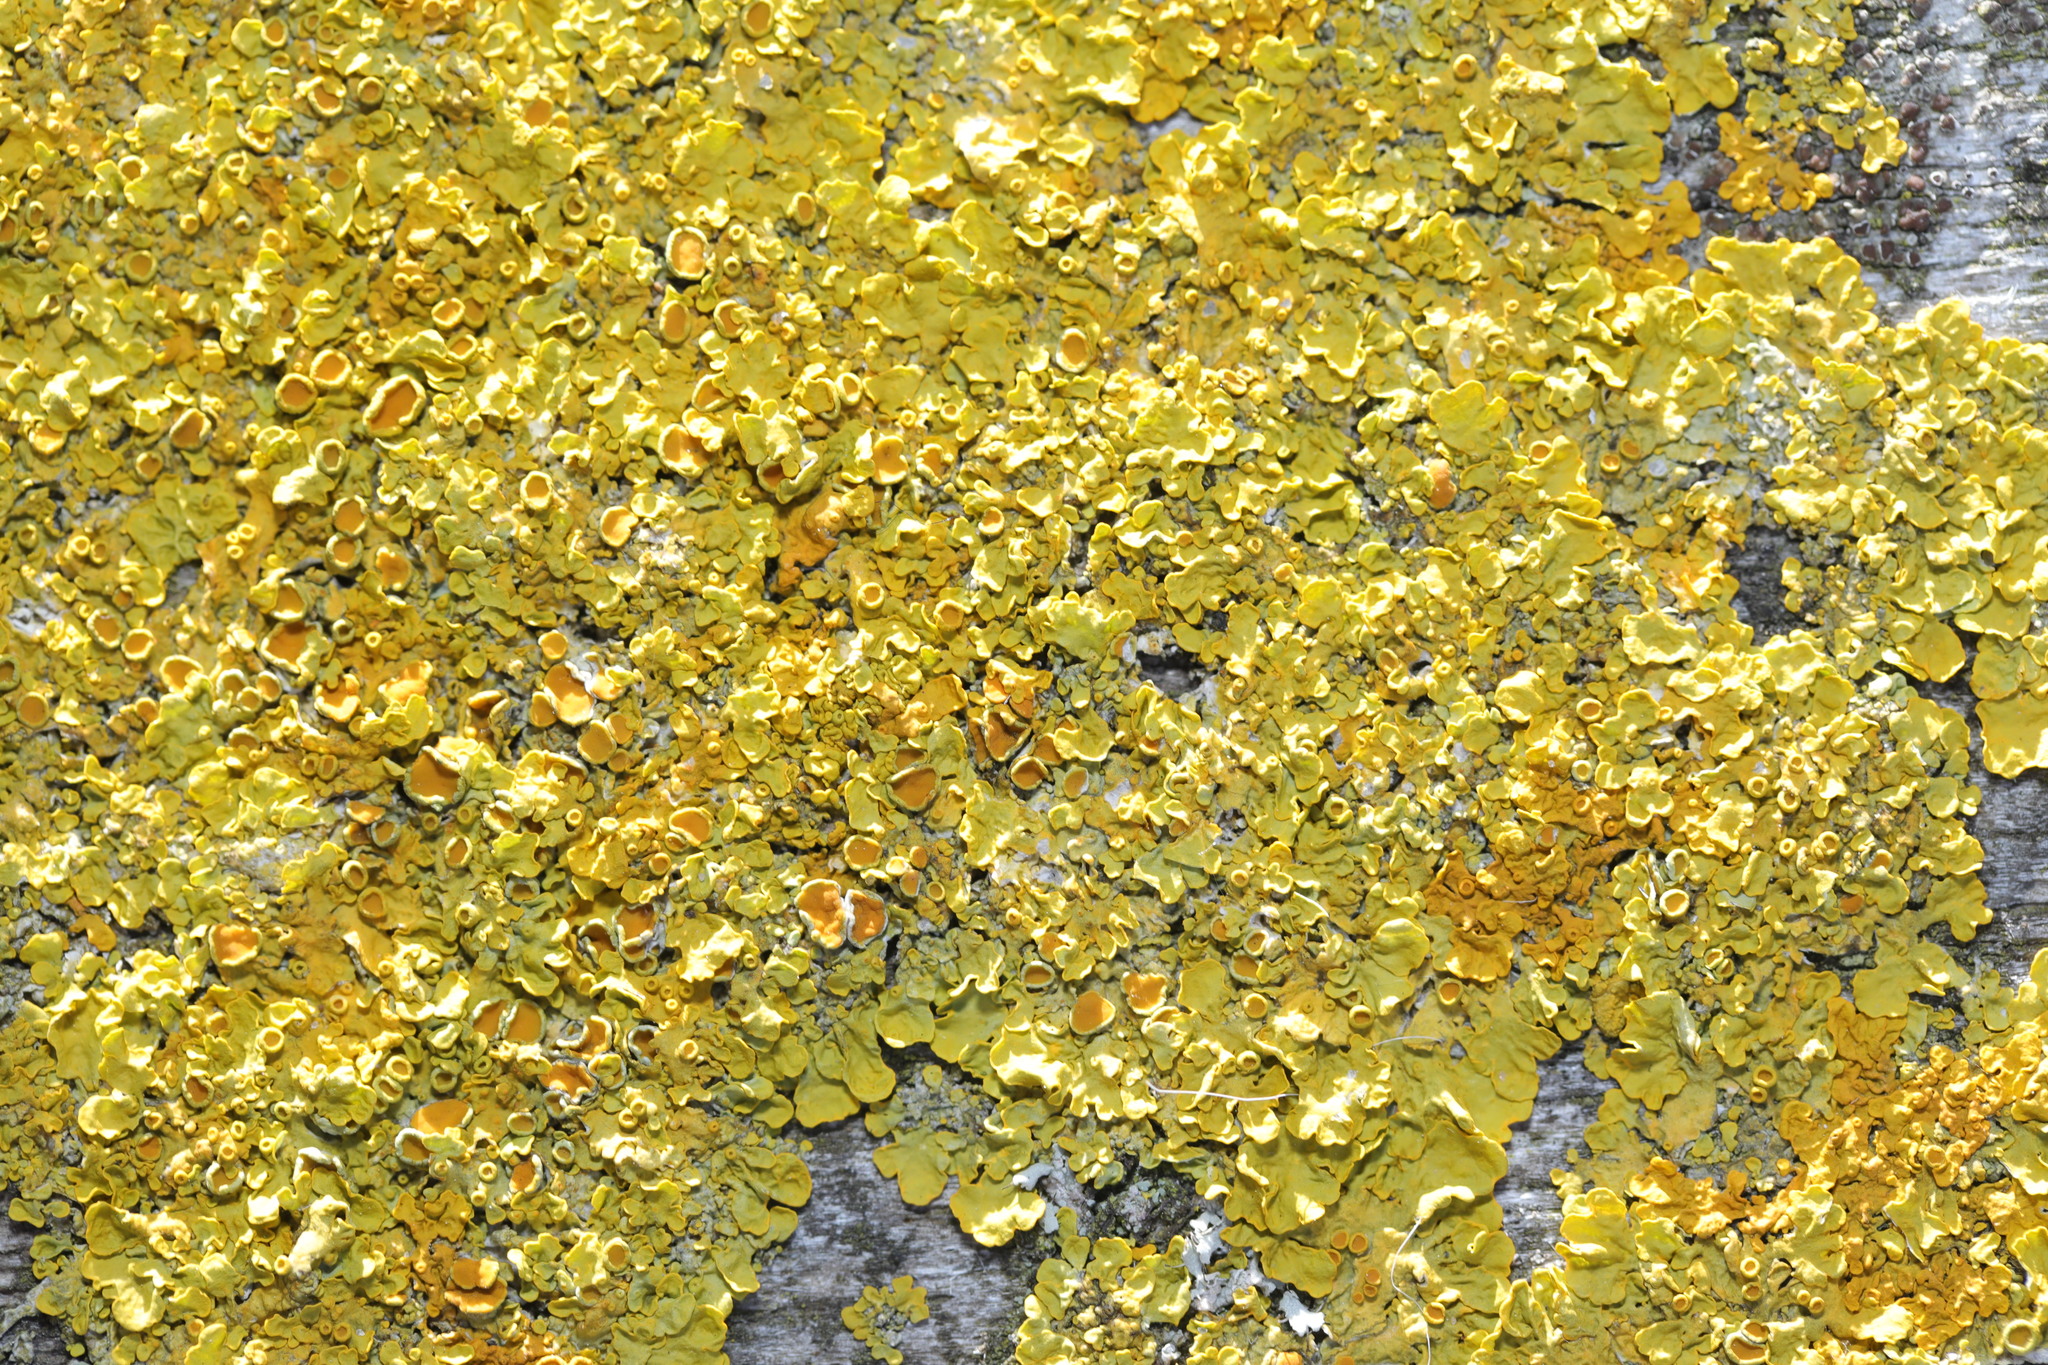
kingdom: Fungi
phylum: Ascomycota
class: Lecanoromycetes
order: Teloschistales
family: Teloschistaceae
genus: Xanthoria
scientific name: Xanthoria parietina
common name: Common orange lichen
